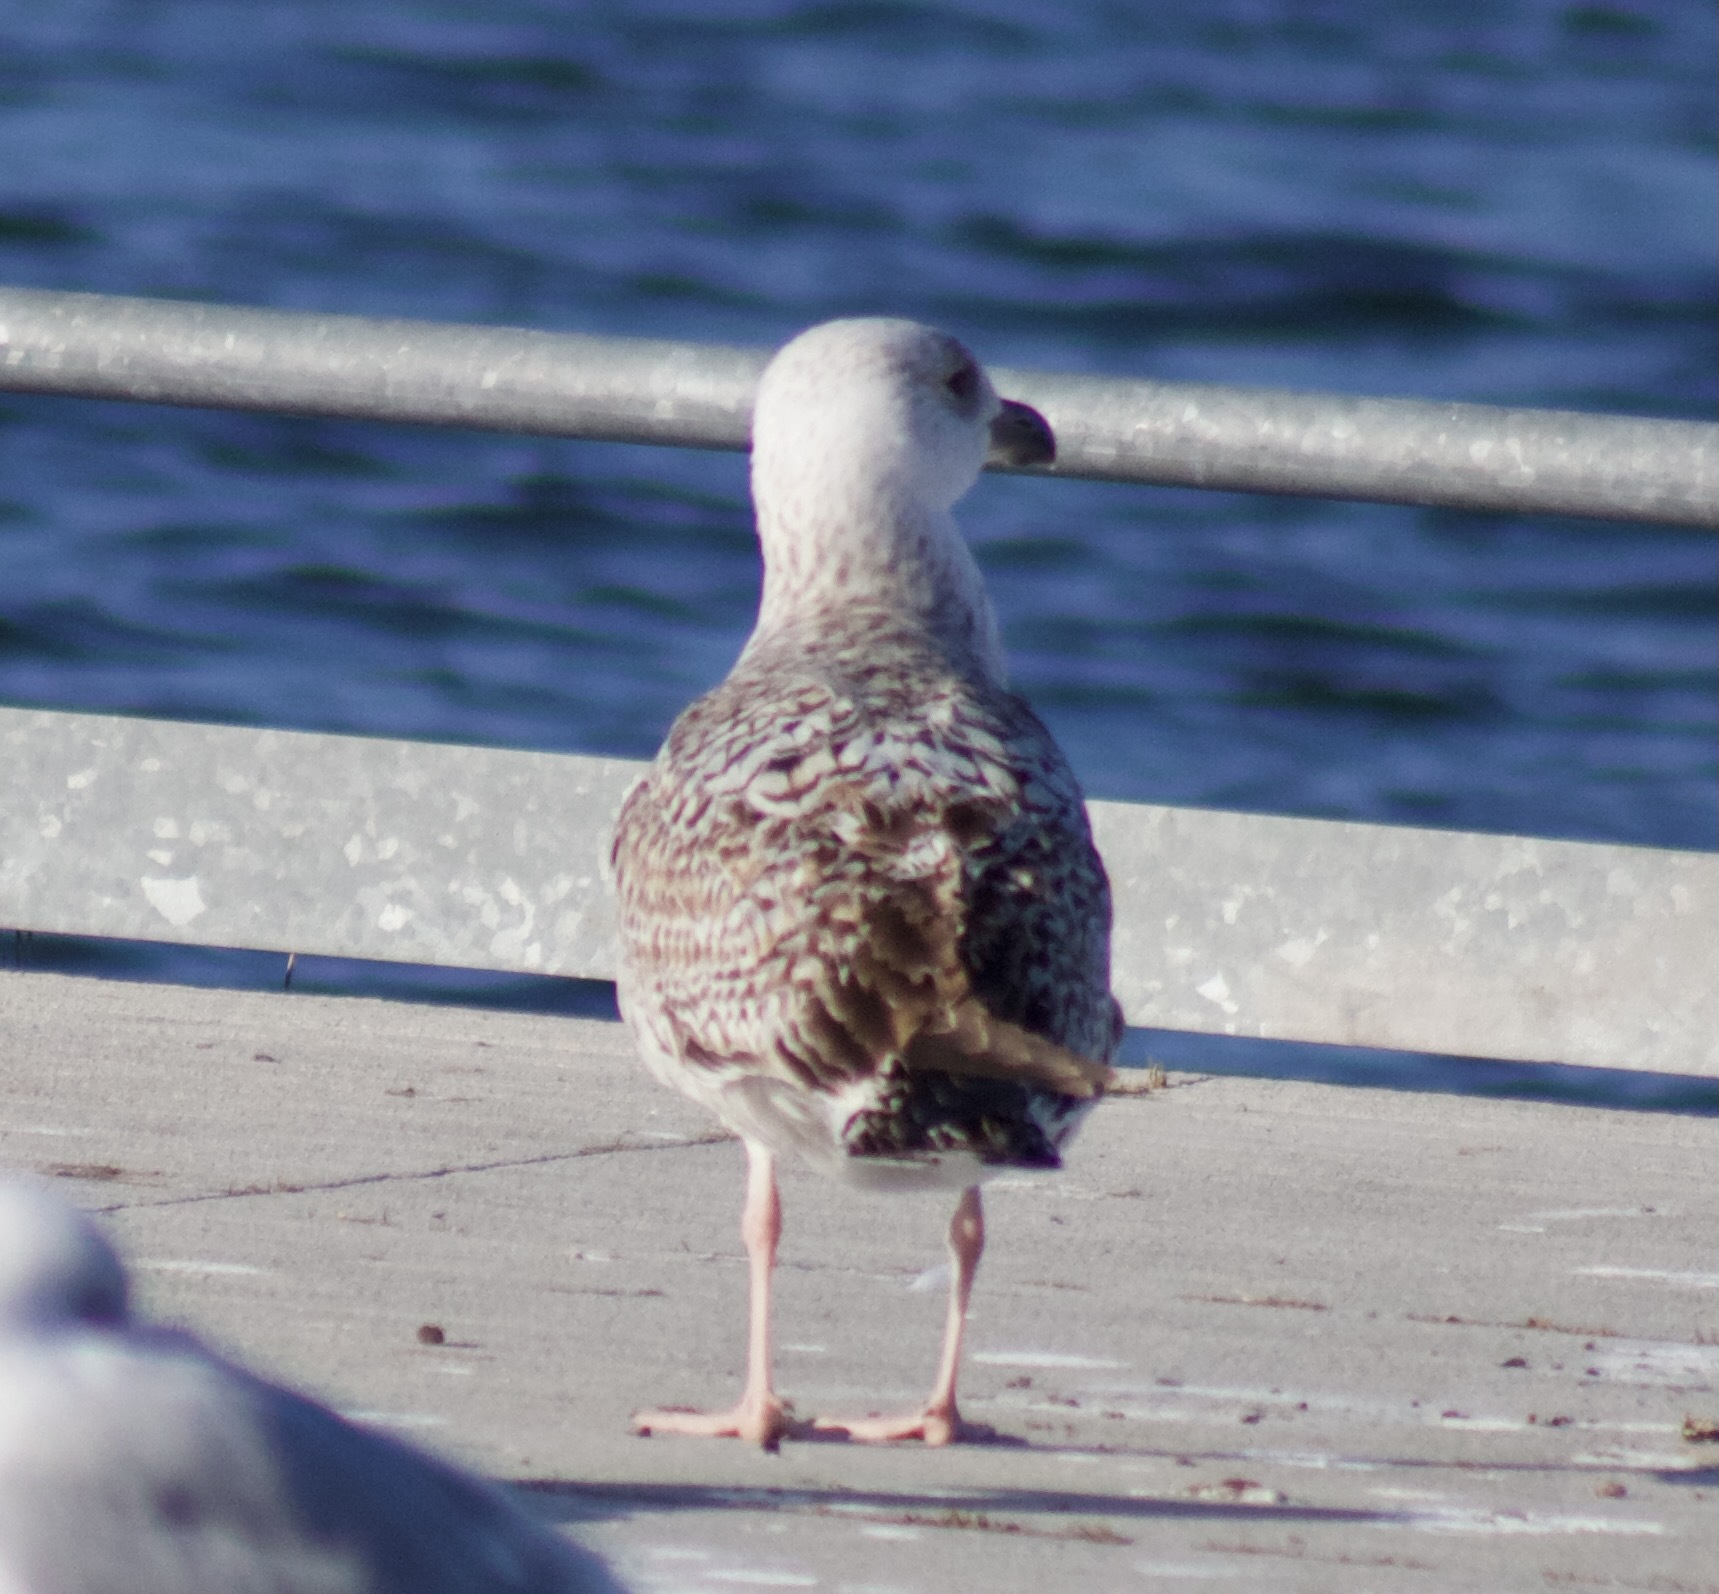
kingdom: Animalia
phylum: Chordata
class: Aves
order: Charadriiformes
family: Laridae
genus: Larus
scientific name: Larus argentatus
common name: Herring gull
